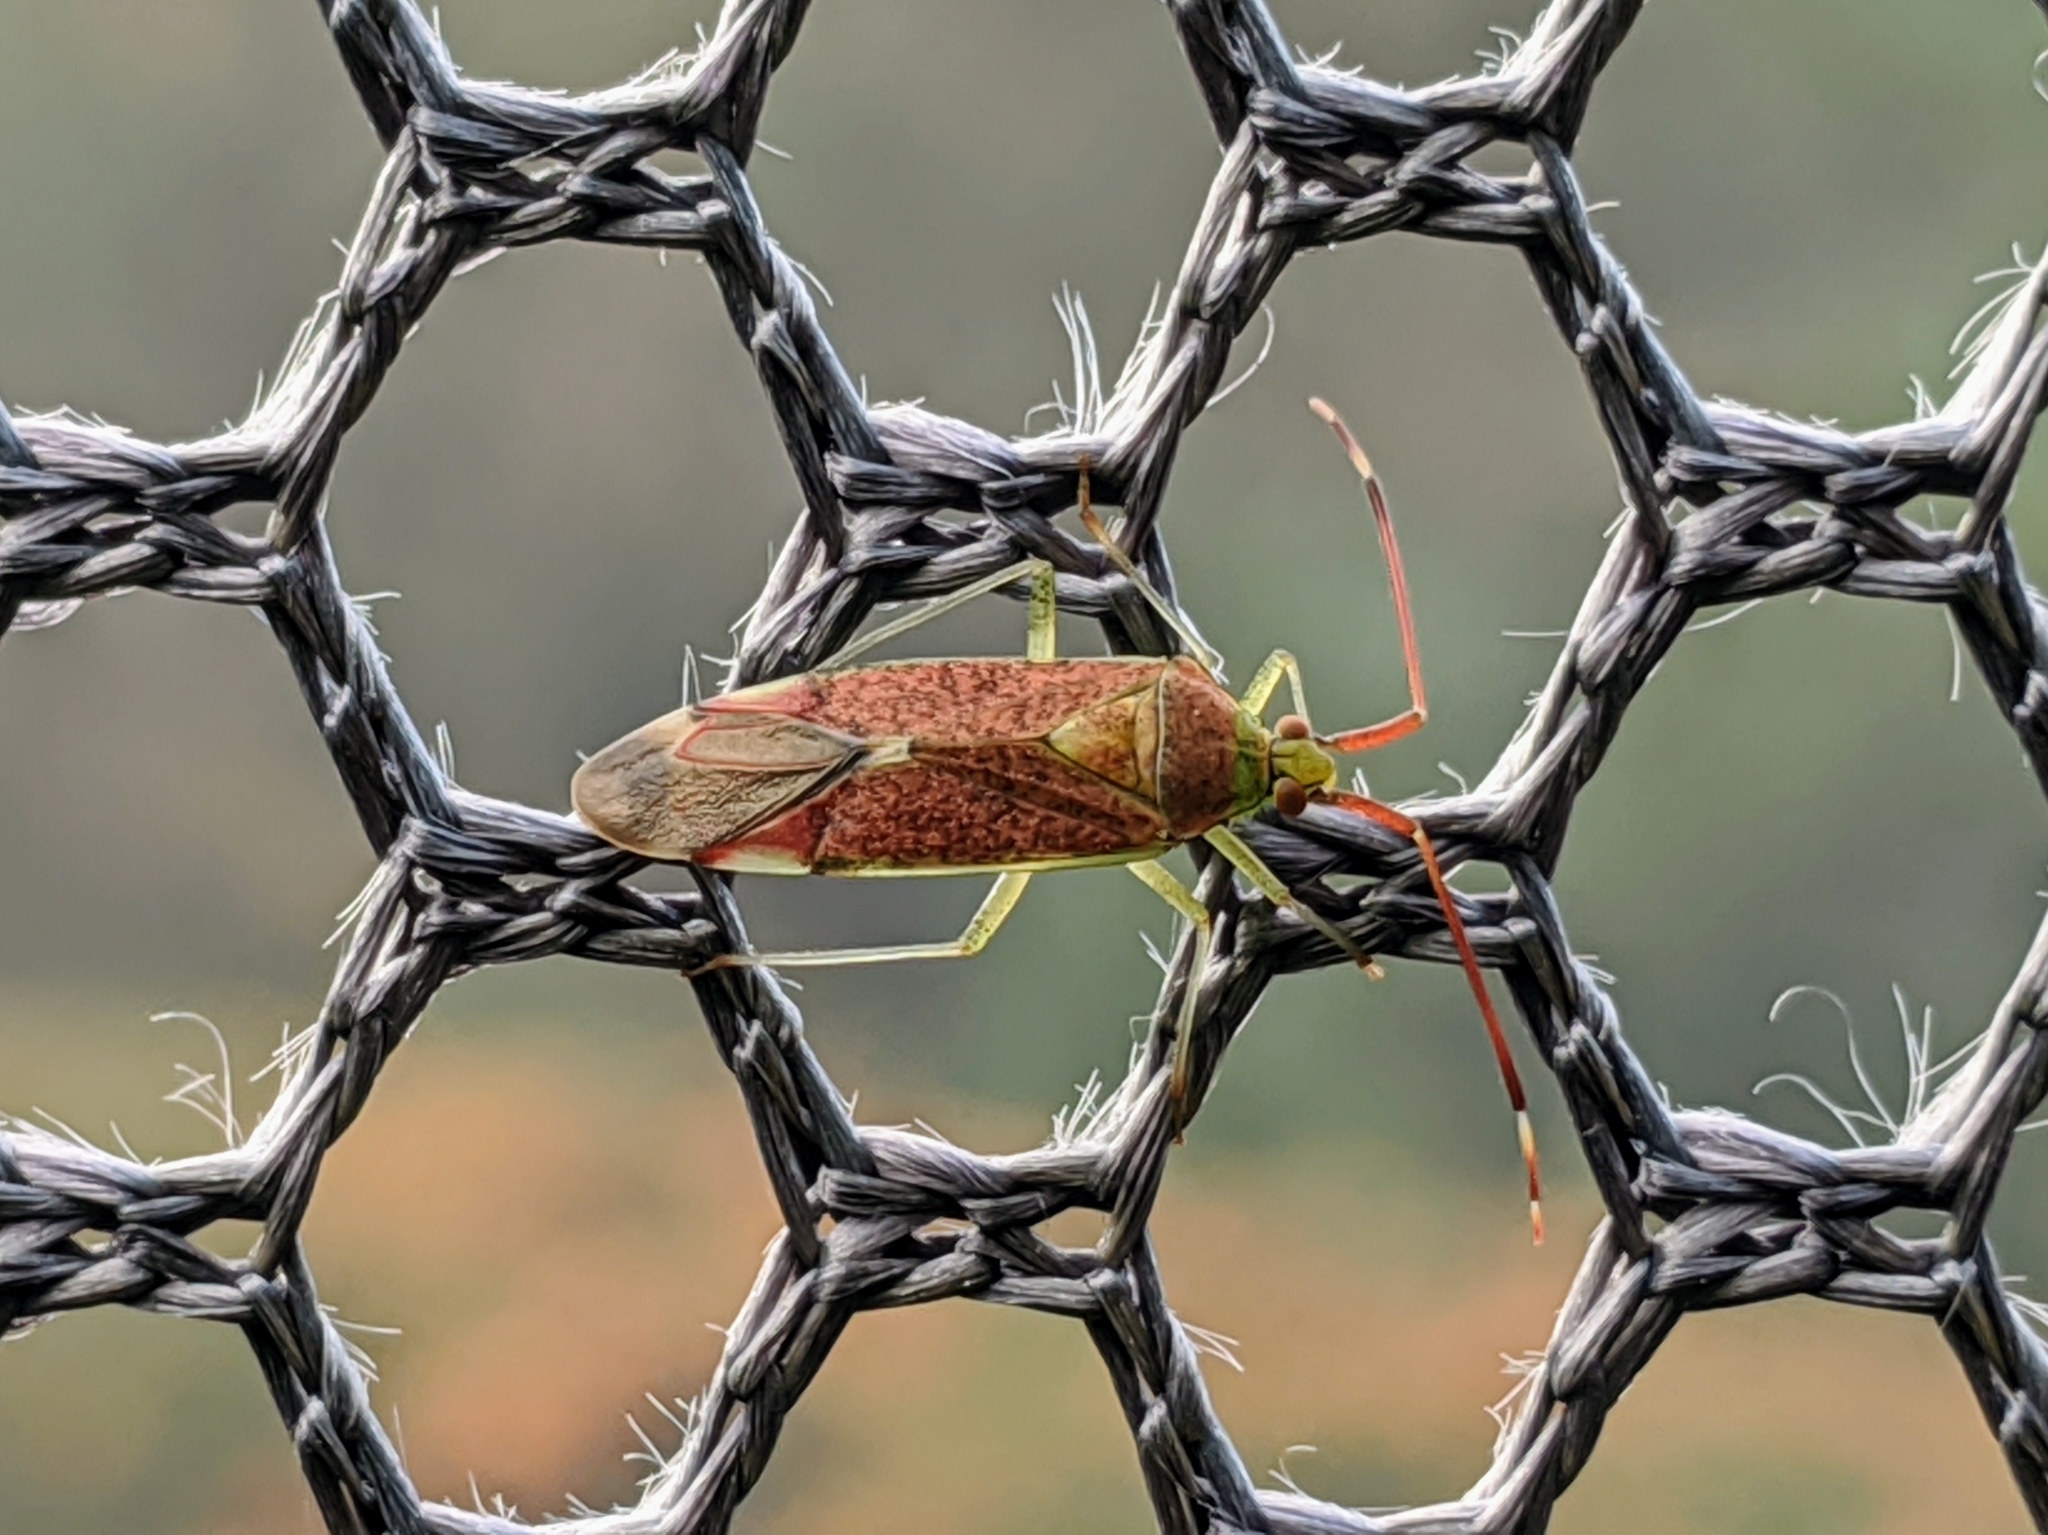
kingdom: Animalia
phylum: Arthropoda
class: Insecta
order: Hemiptera
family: Miridae
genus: Pantilius
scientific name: Pantilius tunicatus
